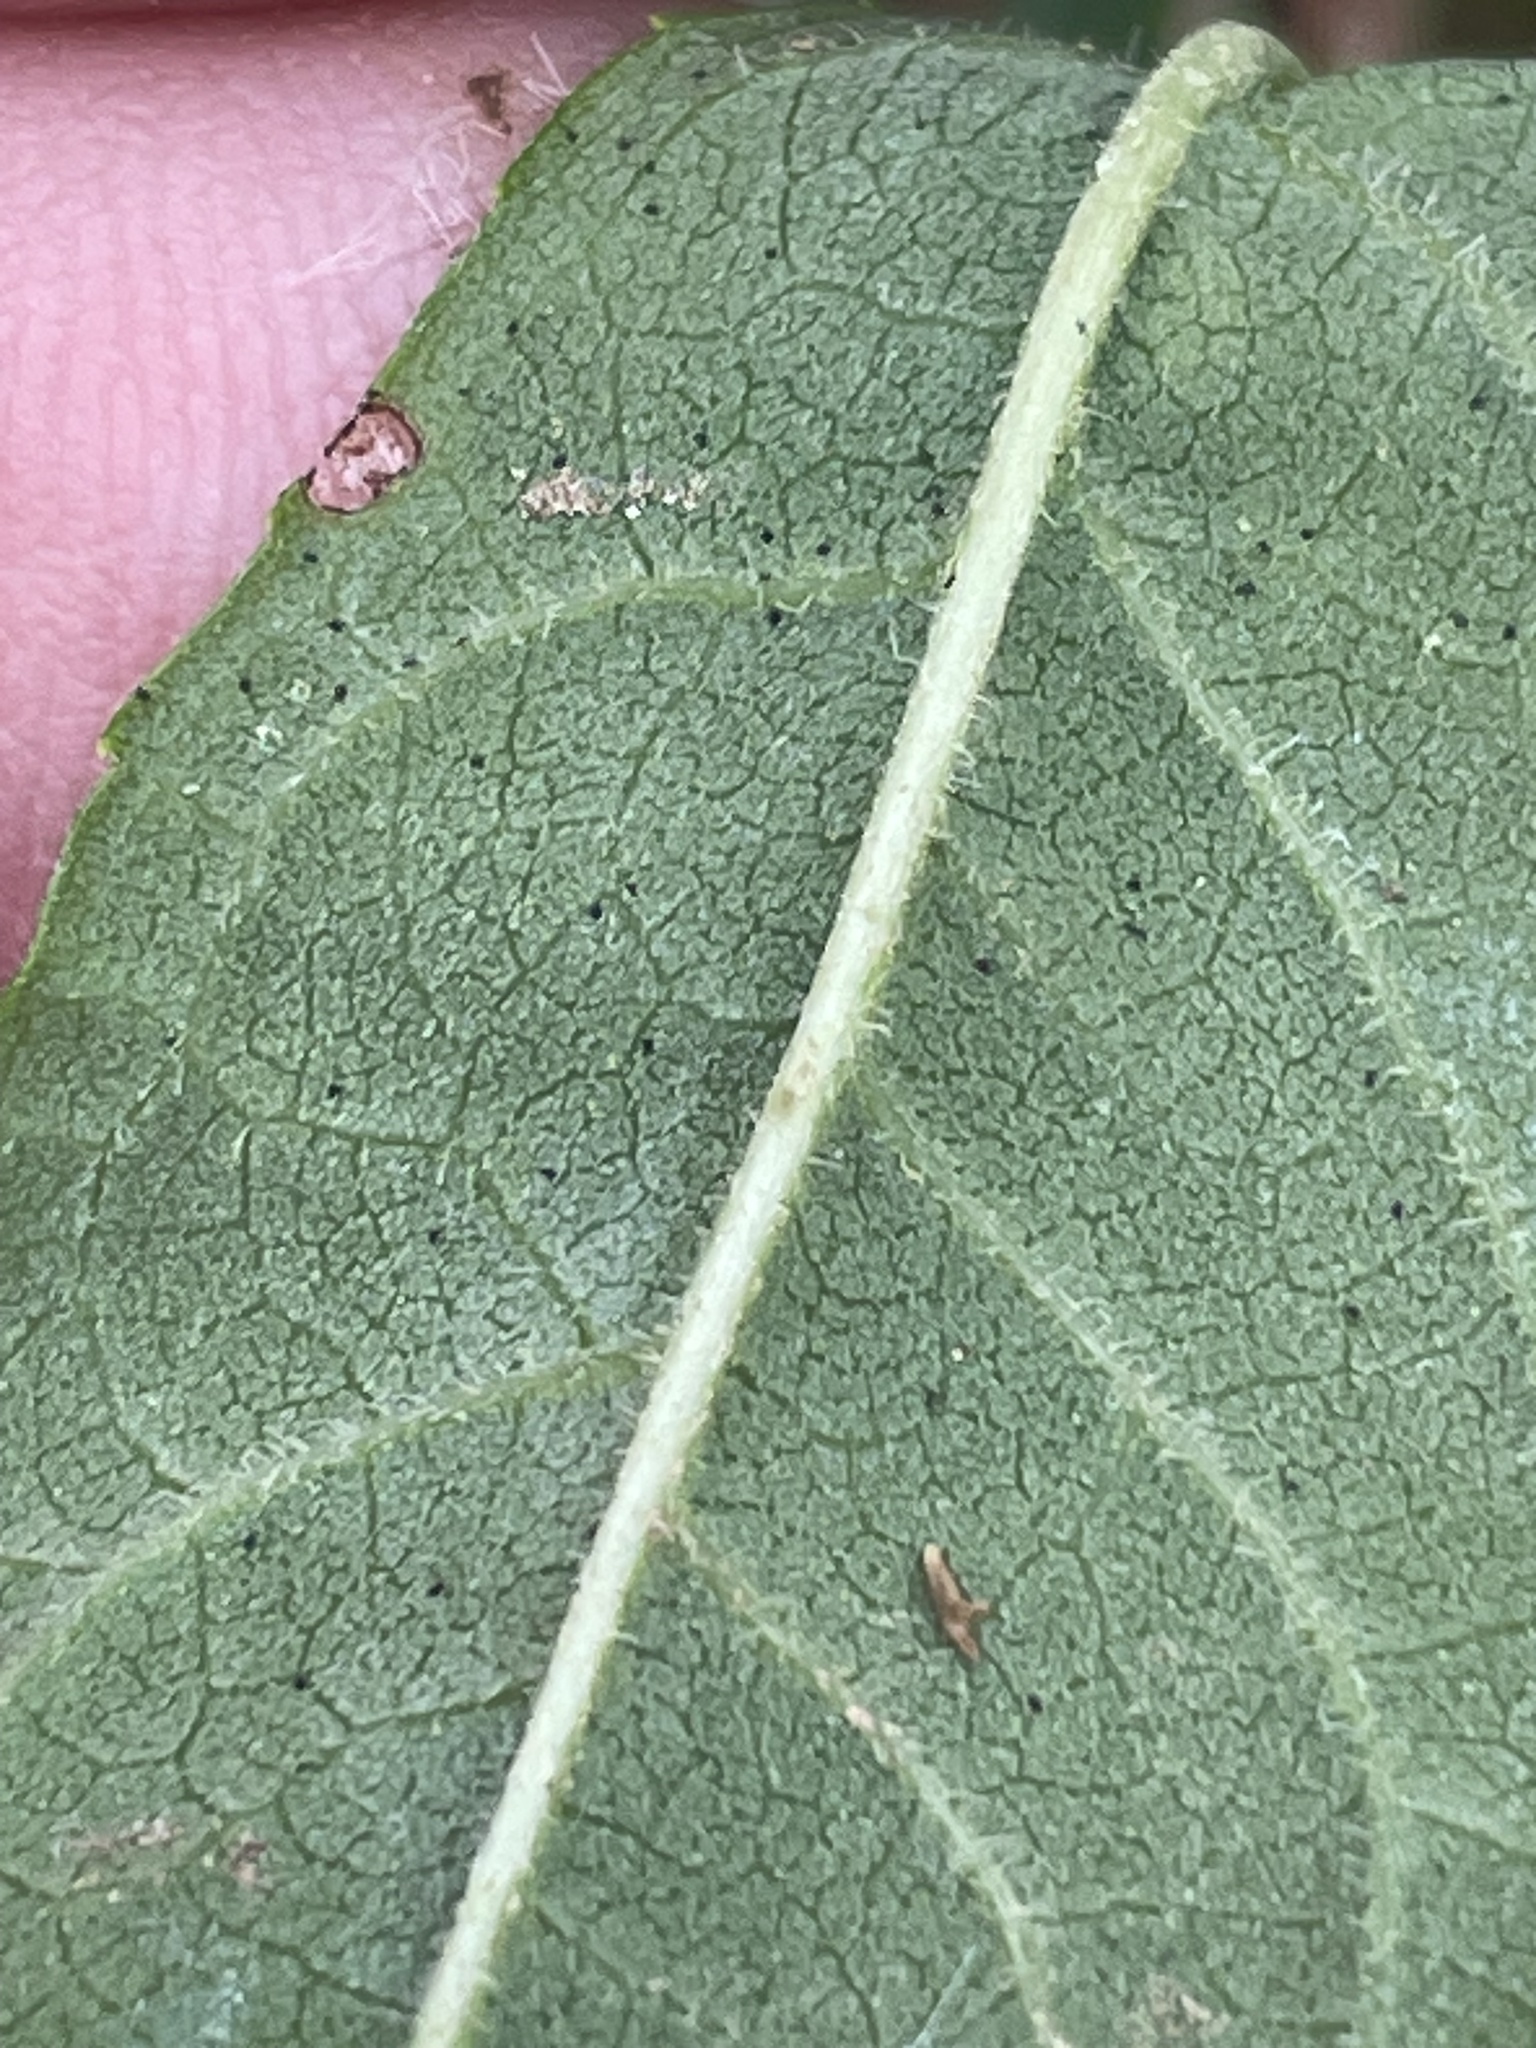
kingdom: Plantae
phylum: Tracheophyta
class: Magnoliopsida
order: Asterales
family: Asteraceae
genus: Vernonia
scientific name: Vernonia glauca
